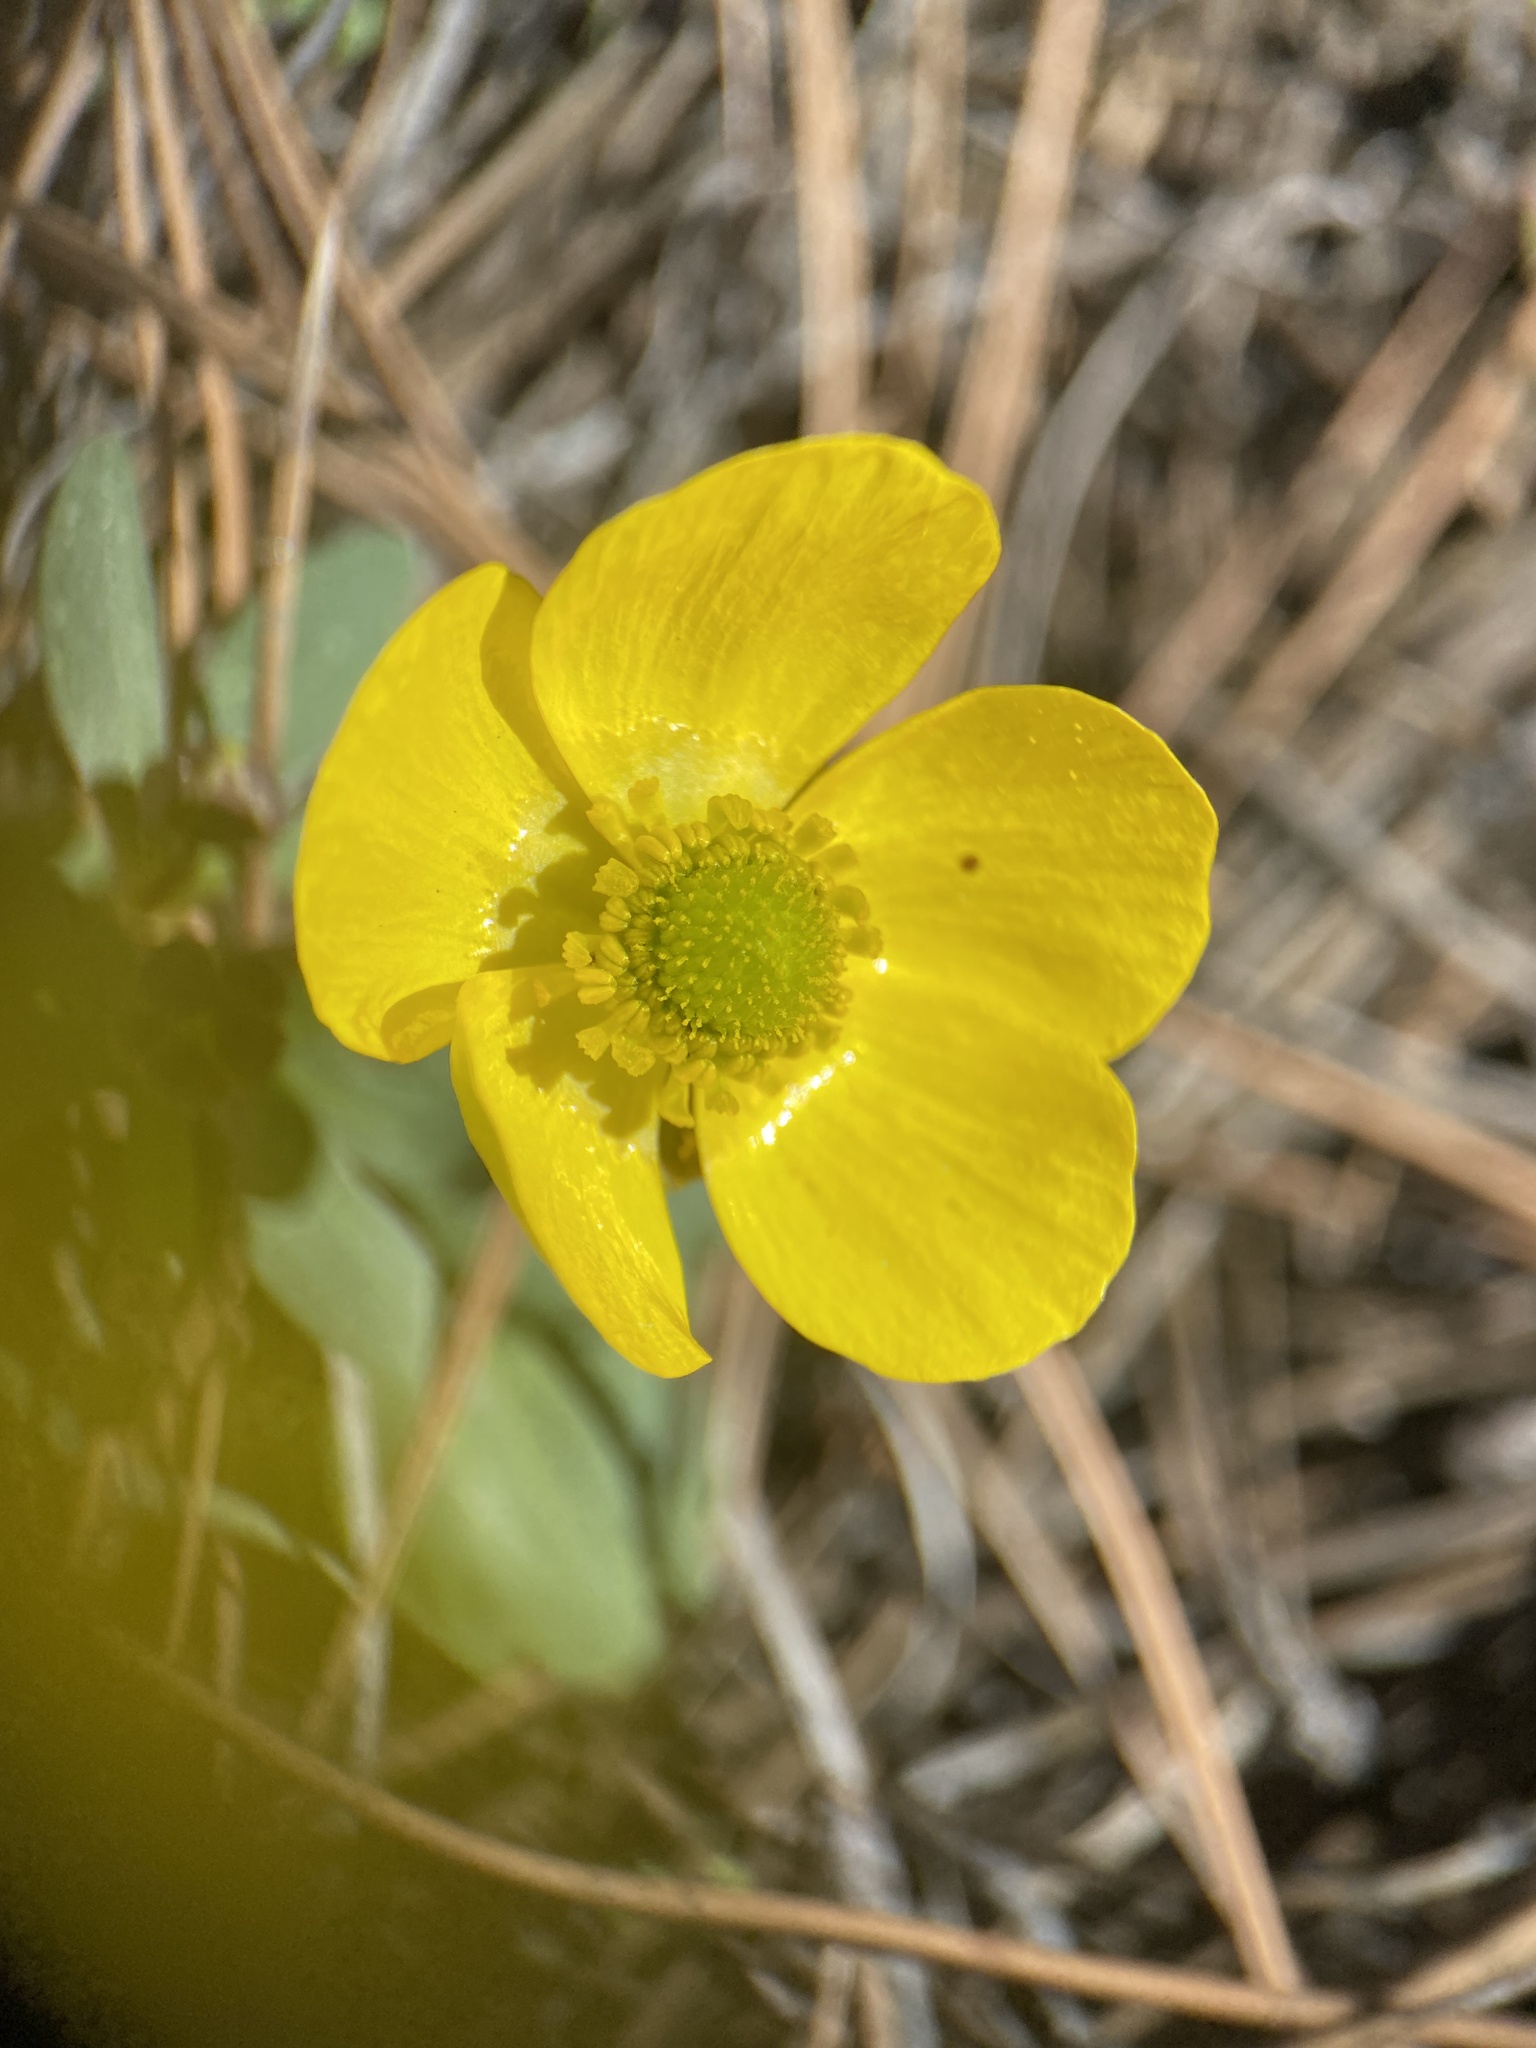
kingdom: Plantae
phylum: Tracheophyta
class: Magnoliopsida
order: Ranunculales
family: Ranunculaceae
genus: Ranunculus
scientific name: Ranunculus glaberrimus
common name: Sagebrush buttercup
